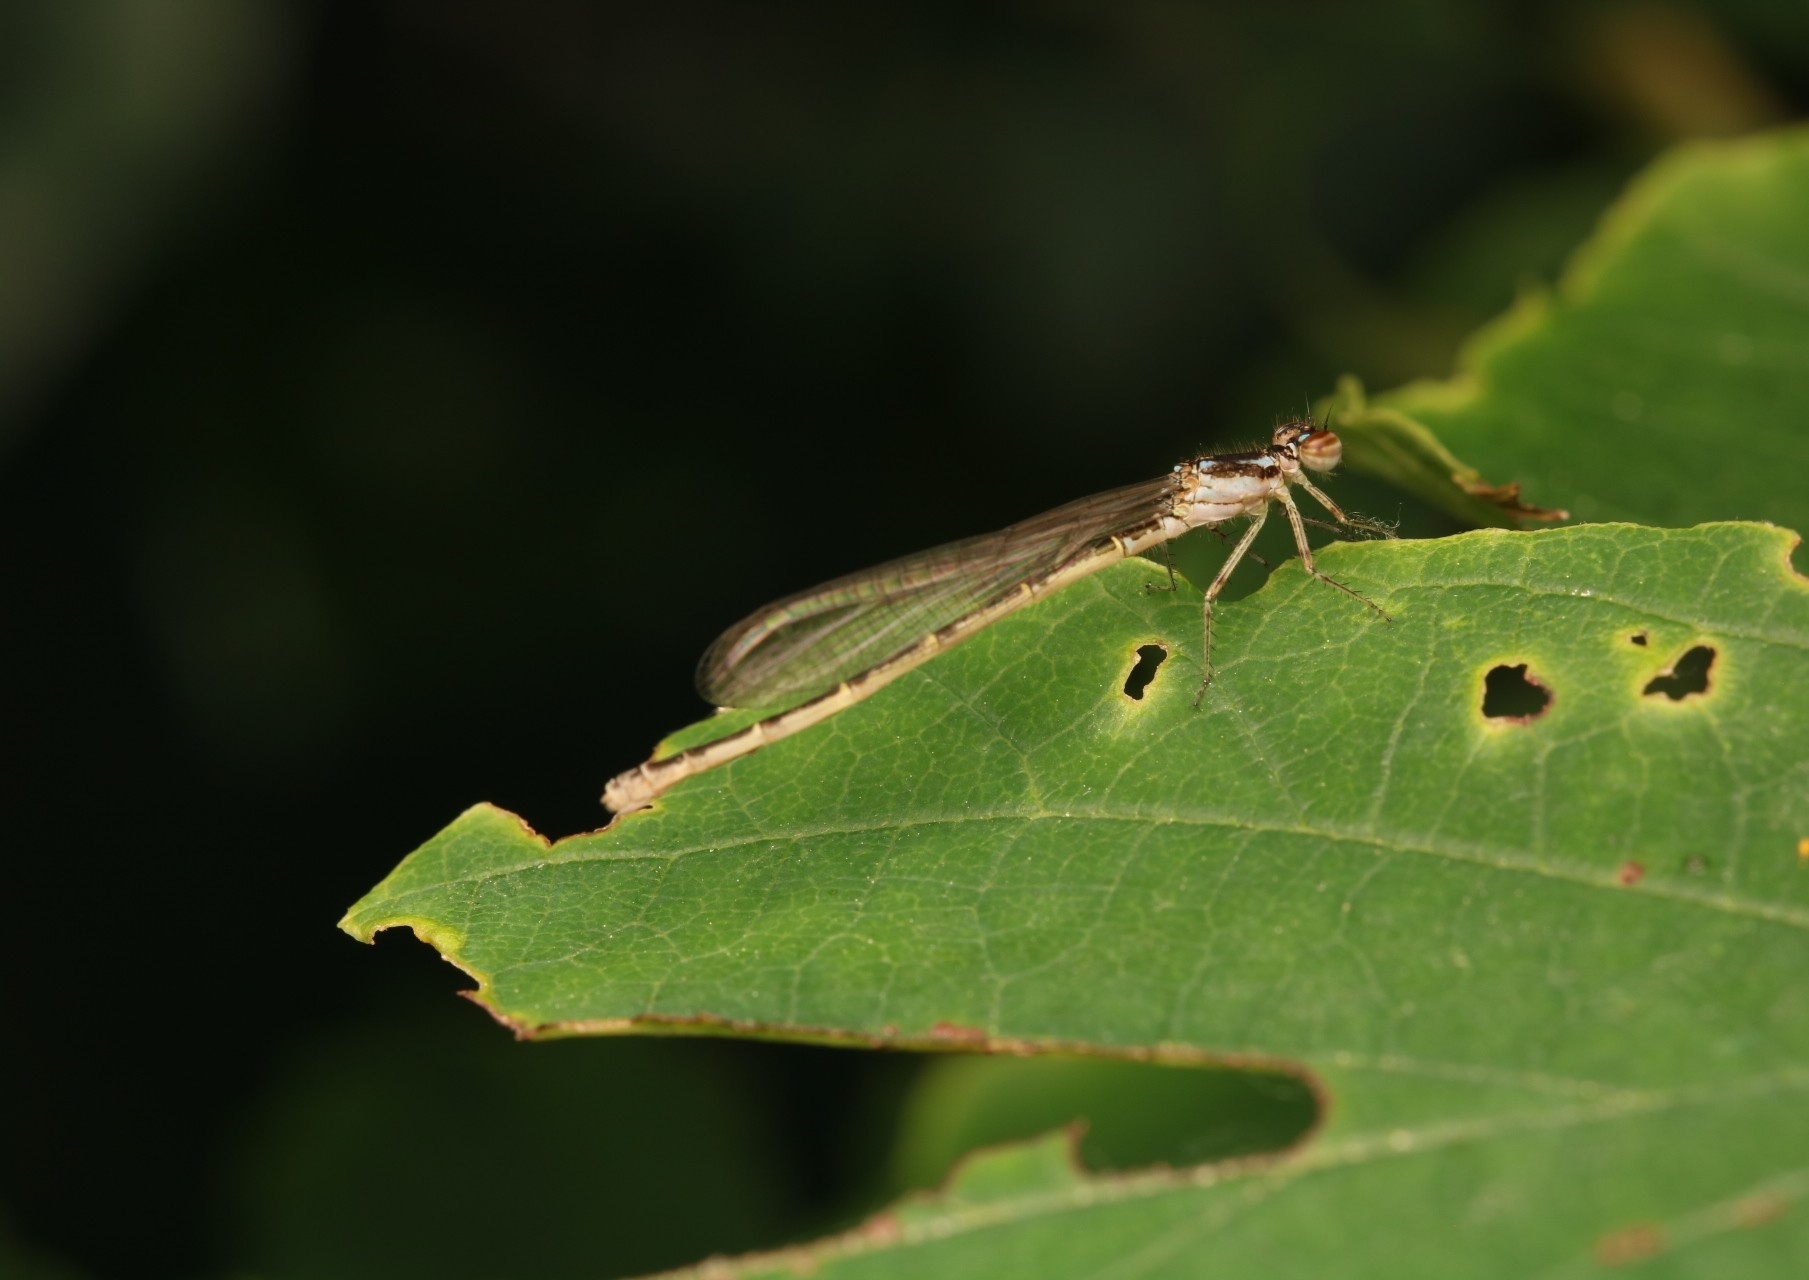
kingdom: Animalia
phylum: Arthropoda
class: Insecta
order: Odonata
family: Coenagrionidae
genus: Ischnura
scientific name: Ischnura posita
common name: Fragile forktail
